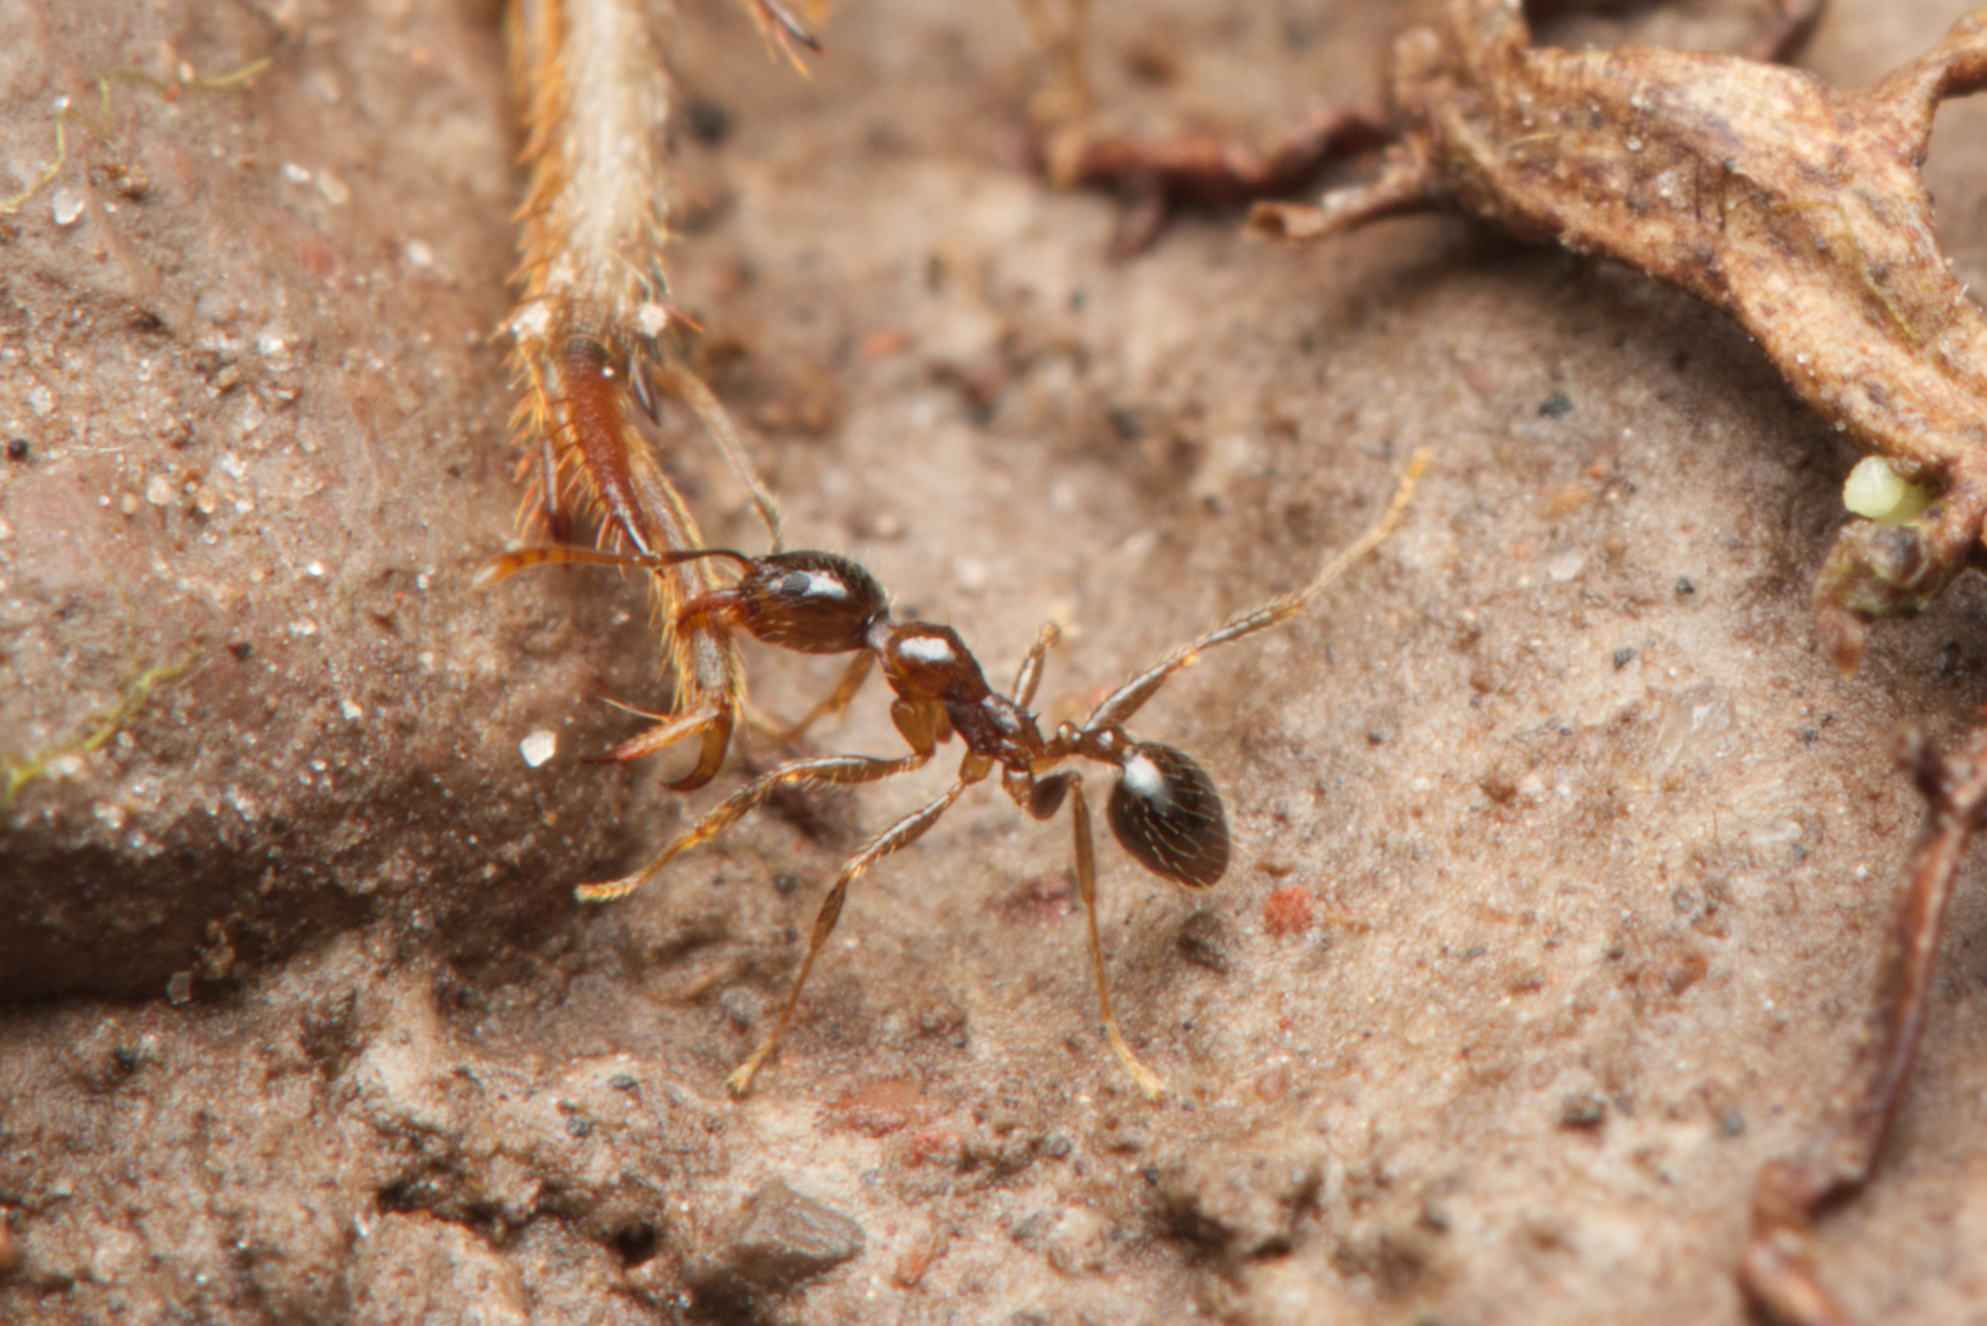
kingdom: Animalia
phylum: Arthropoda
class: Insecta
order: Hymenoptera
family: Formicidae
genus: Pheidole
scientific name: Pheidole megacephala
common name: Bigheaded ant
